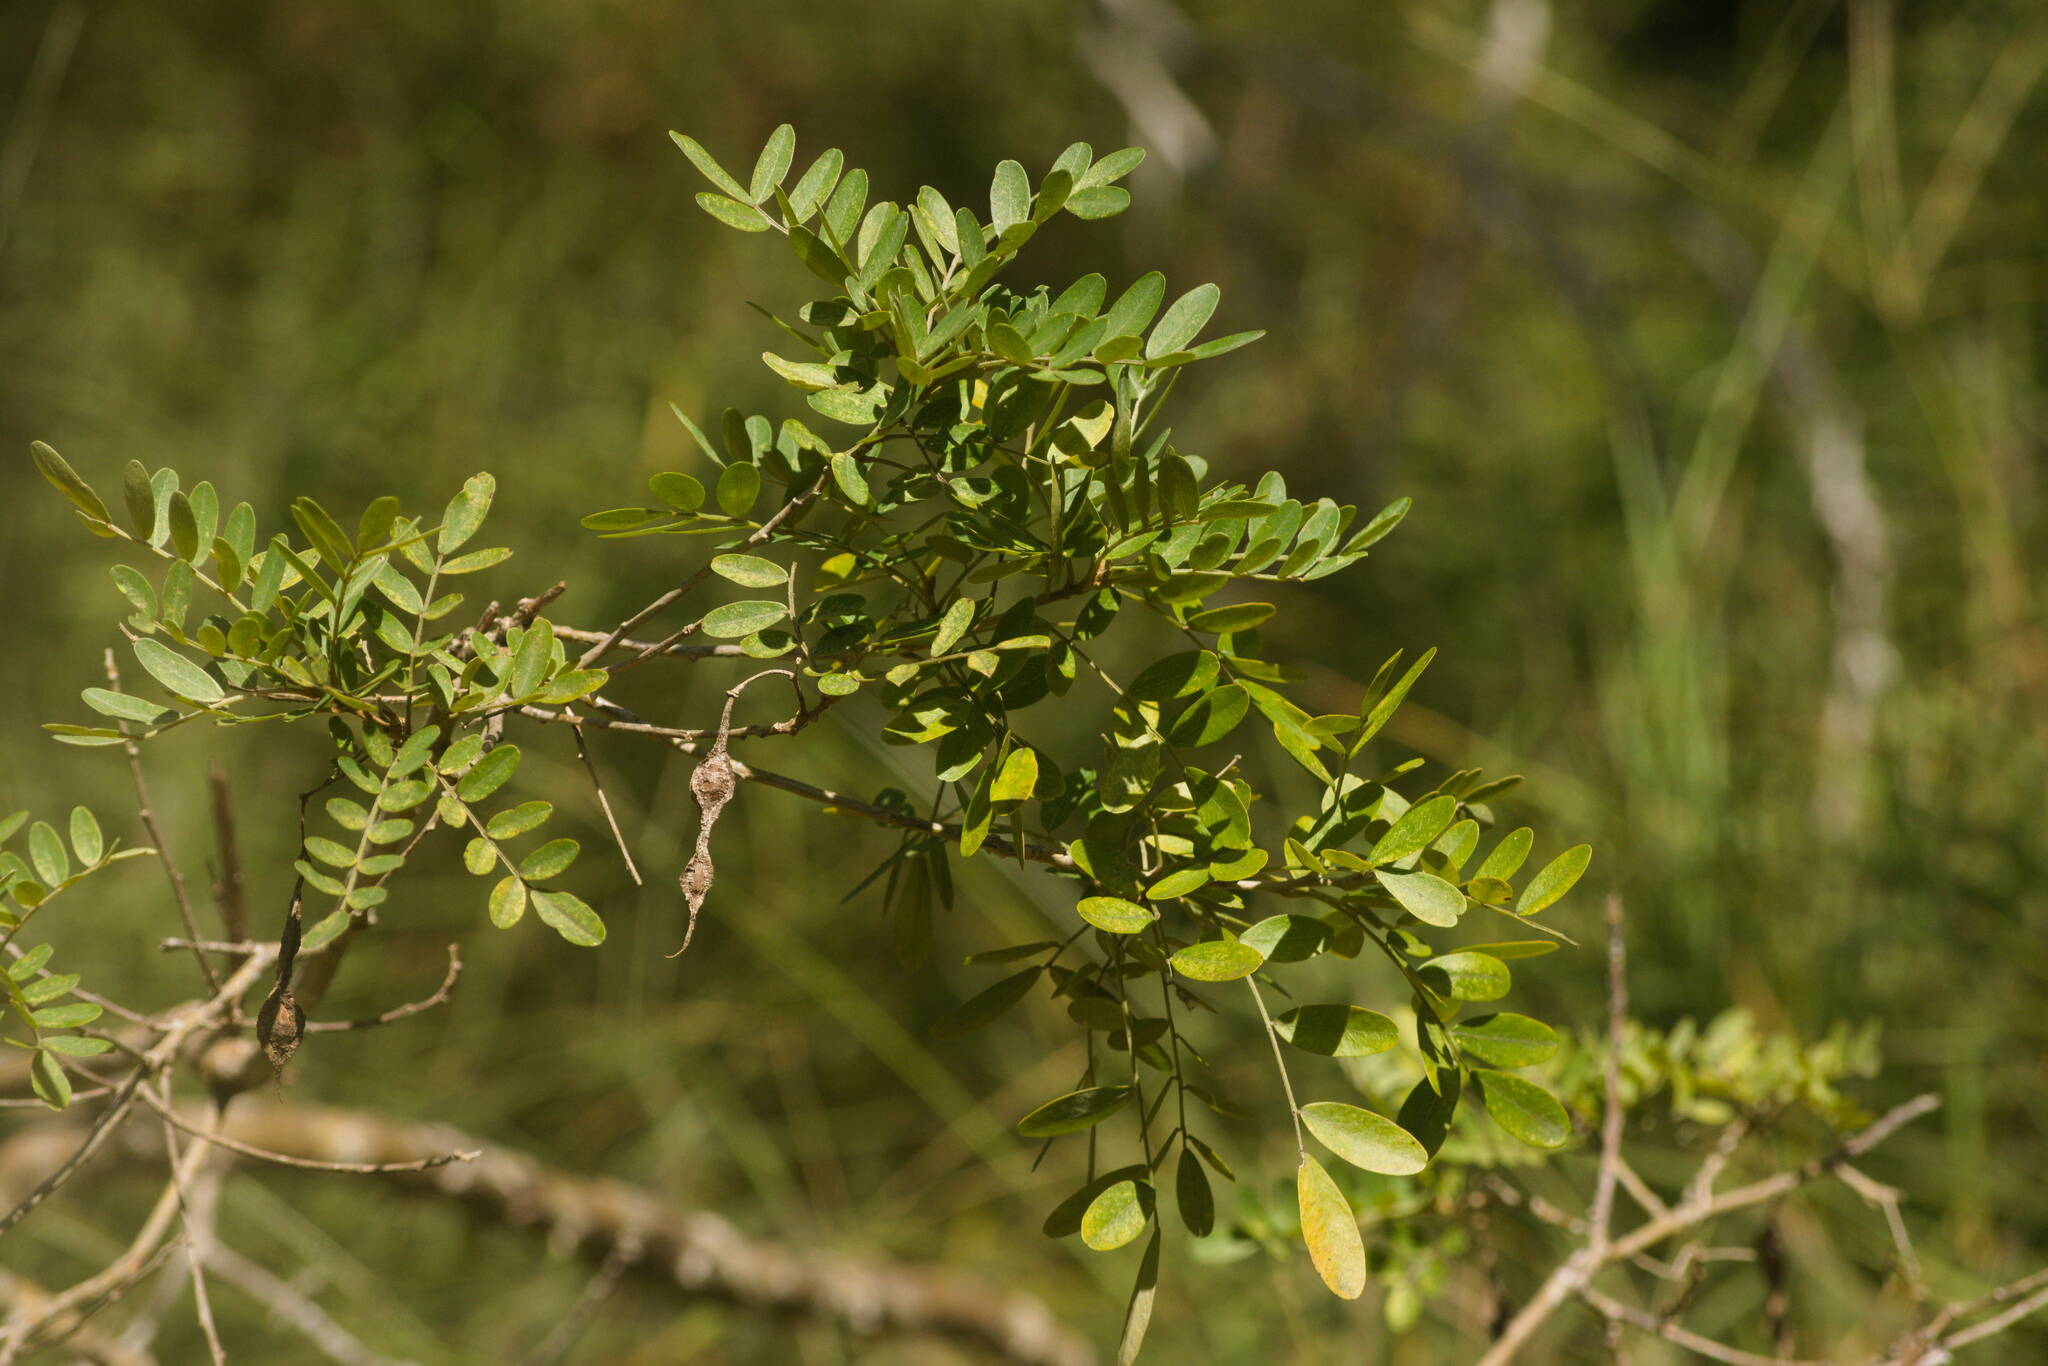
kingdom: Plantae
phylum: Tracheophyta
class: Magnoliopsida
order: Fabales
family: Fabaceae
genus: Sophora
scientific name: Sophora chrysophylla
